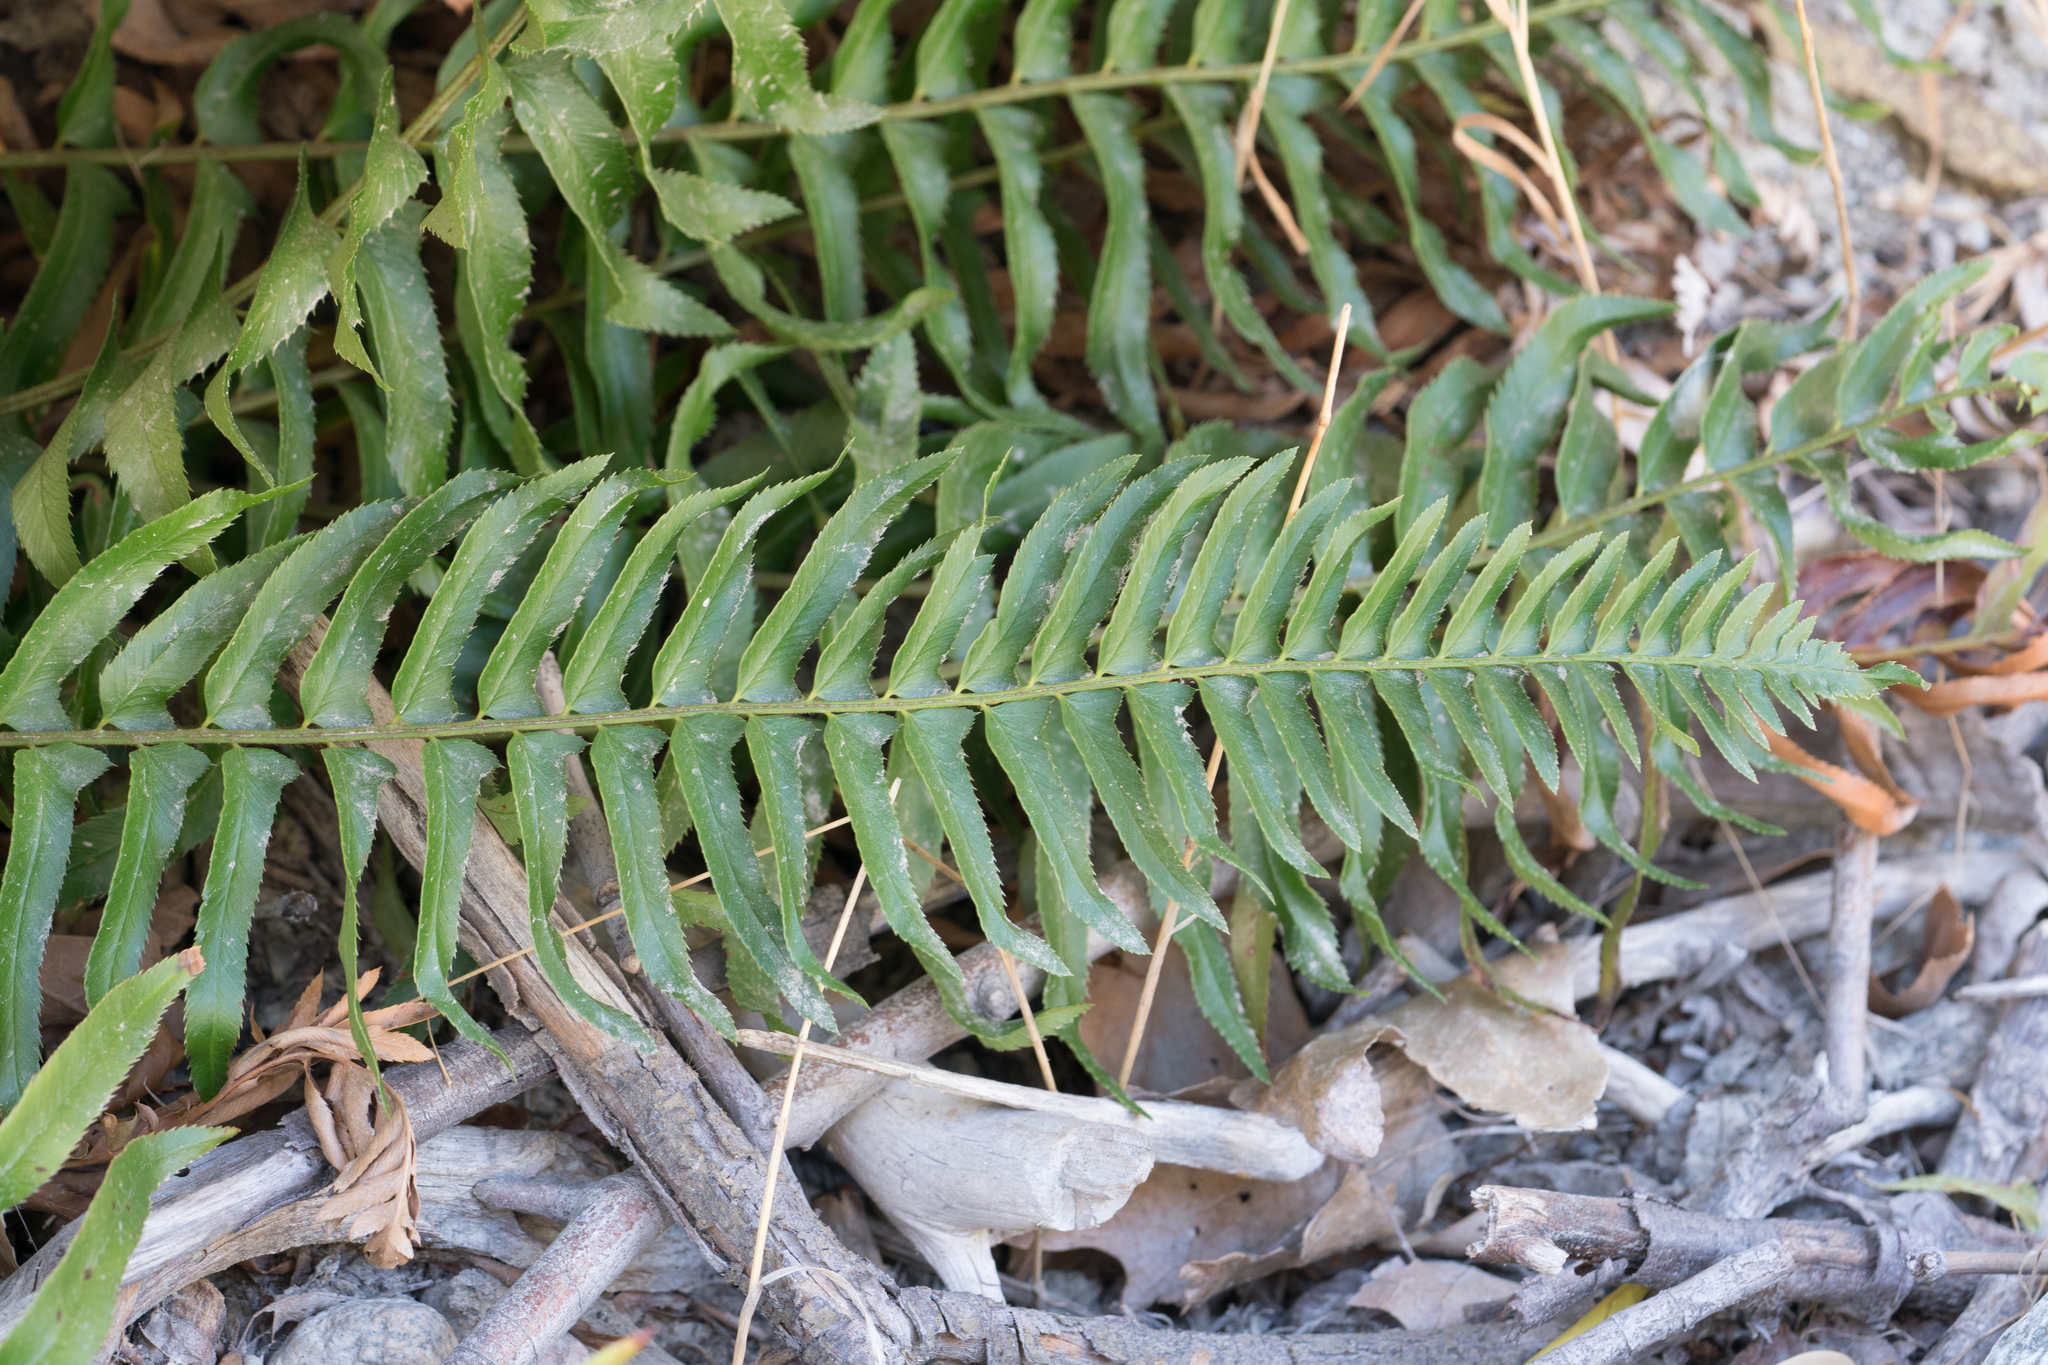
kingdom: Plantae
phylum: Tracheophyta
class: Polypodiopsida
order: Polypodiales
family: Dryopteridaceae
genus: Polystichum
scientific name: Polystichum munitum
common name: Western sword-fern
